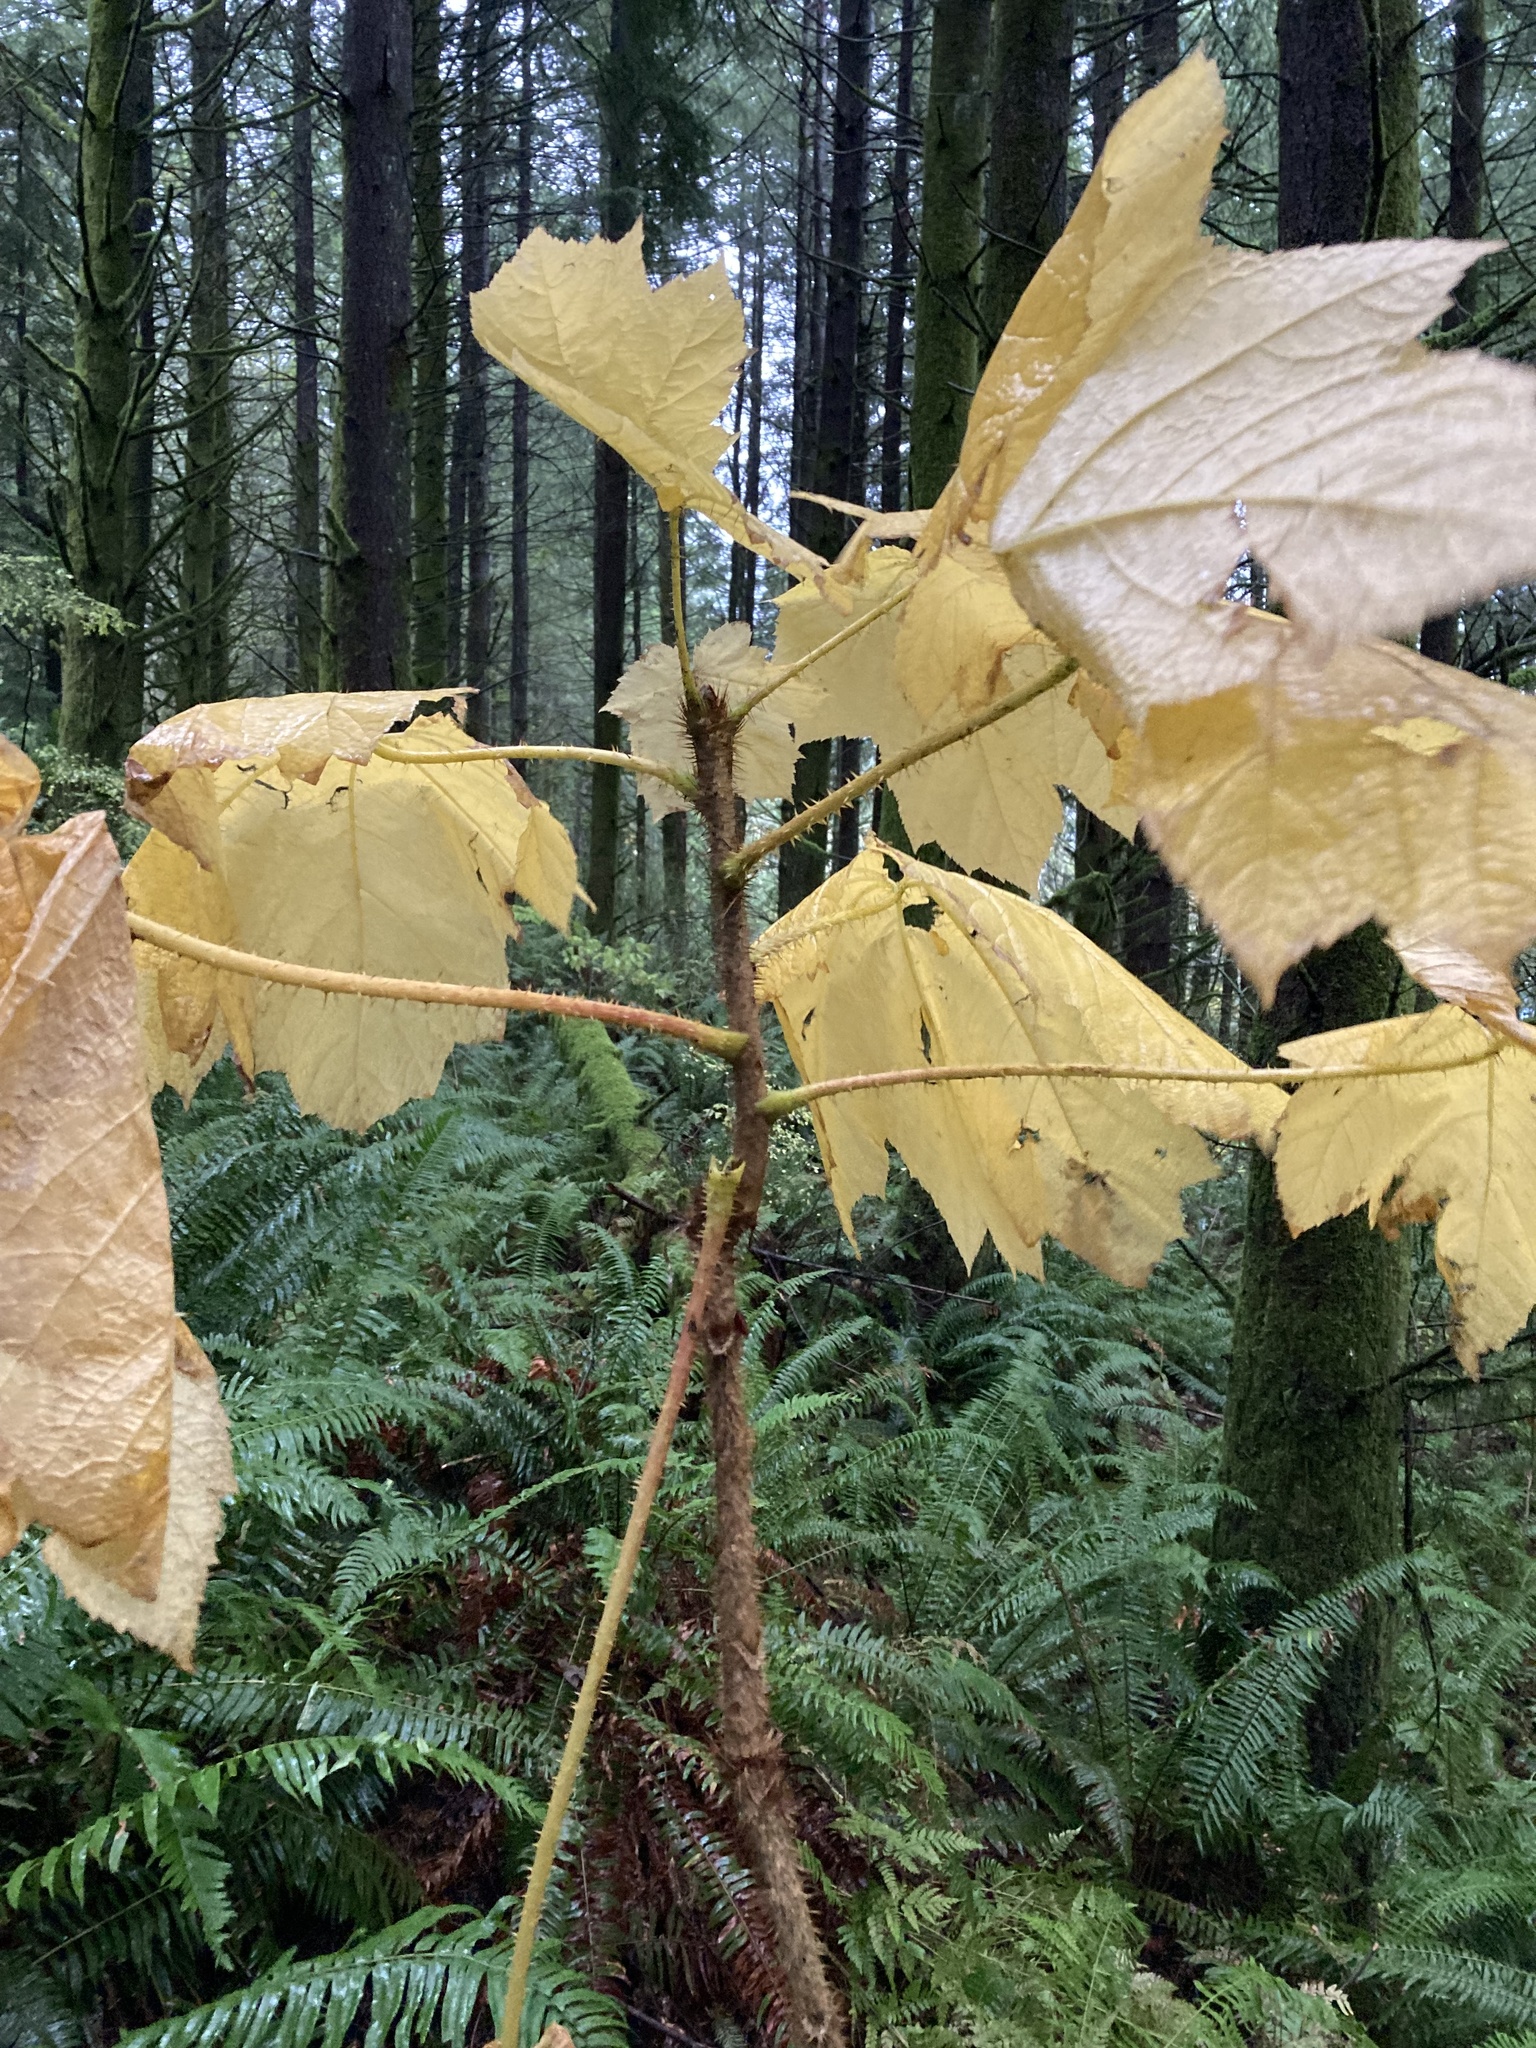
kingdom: Plantae
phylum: Tracheophyta
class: Magnoliopsida
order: Apiales
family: Araliaceae
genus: Oplopanax
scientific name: Oplopanax horridus
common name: Devil's walking-stick
